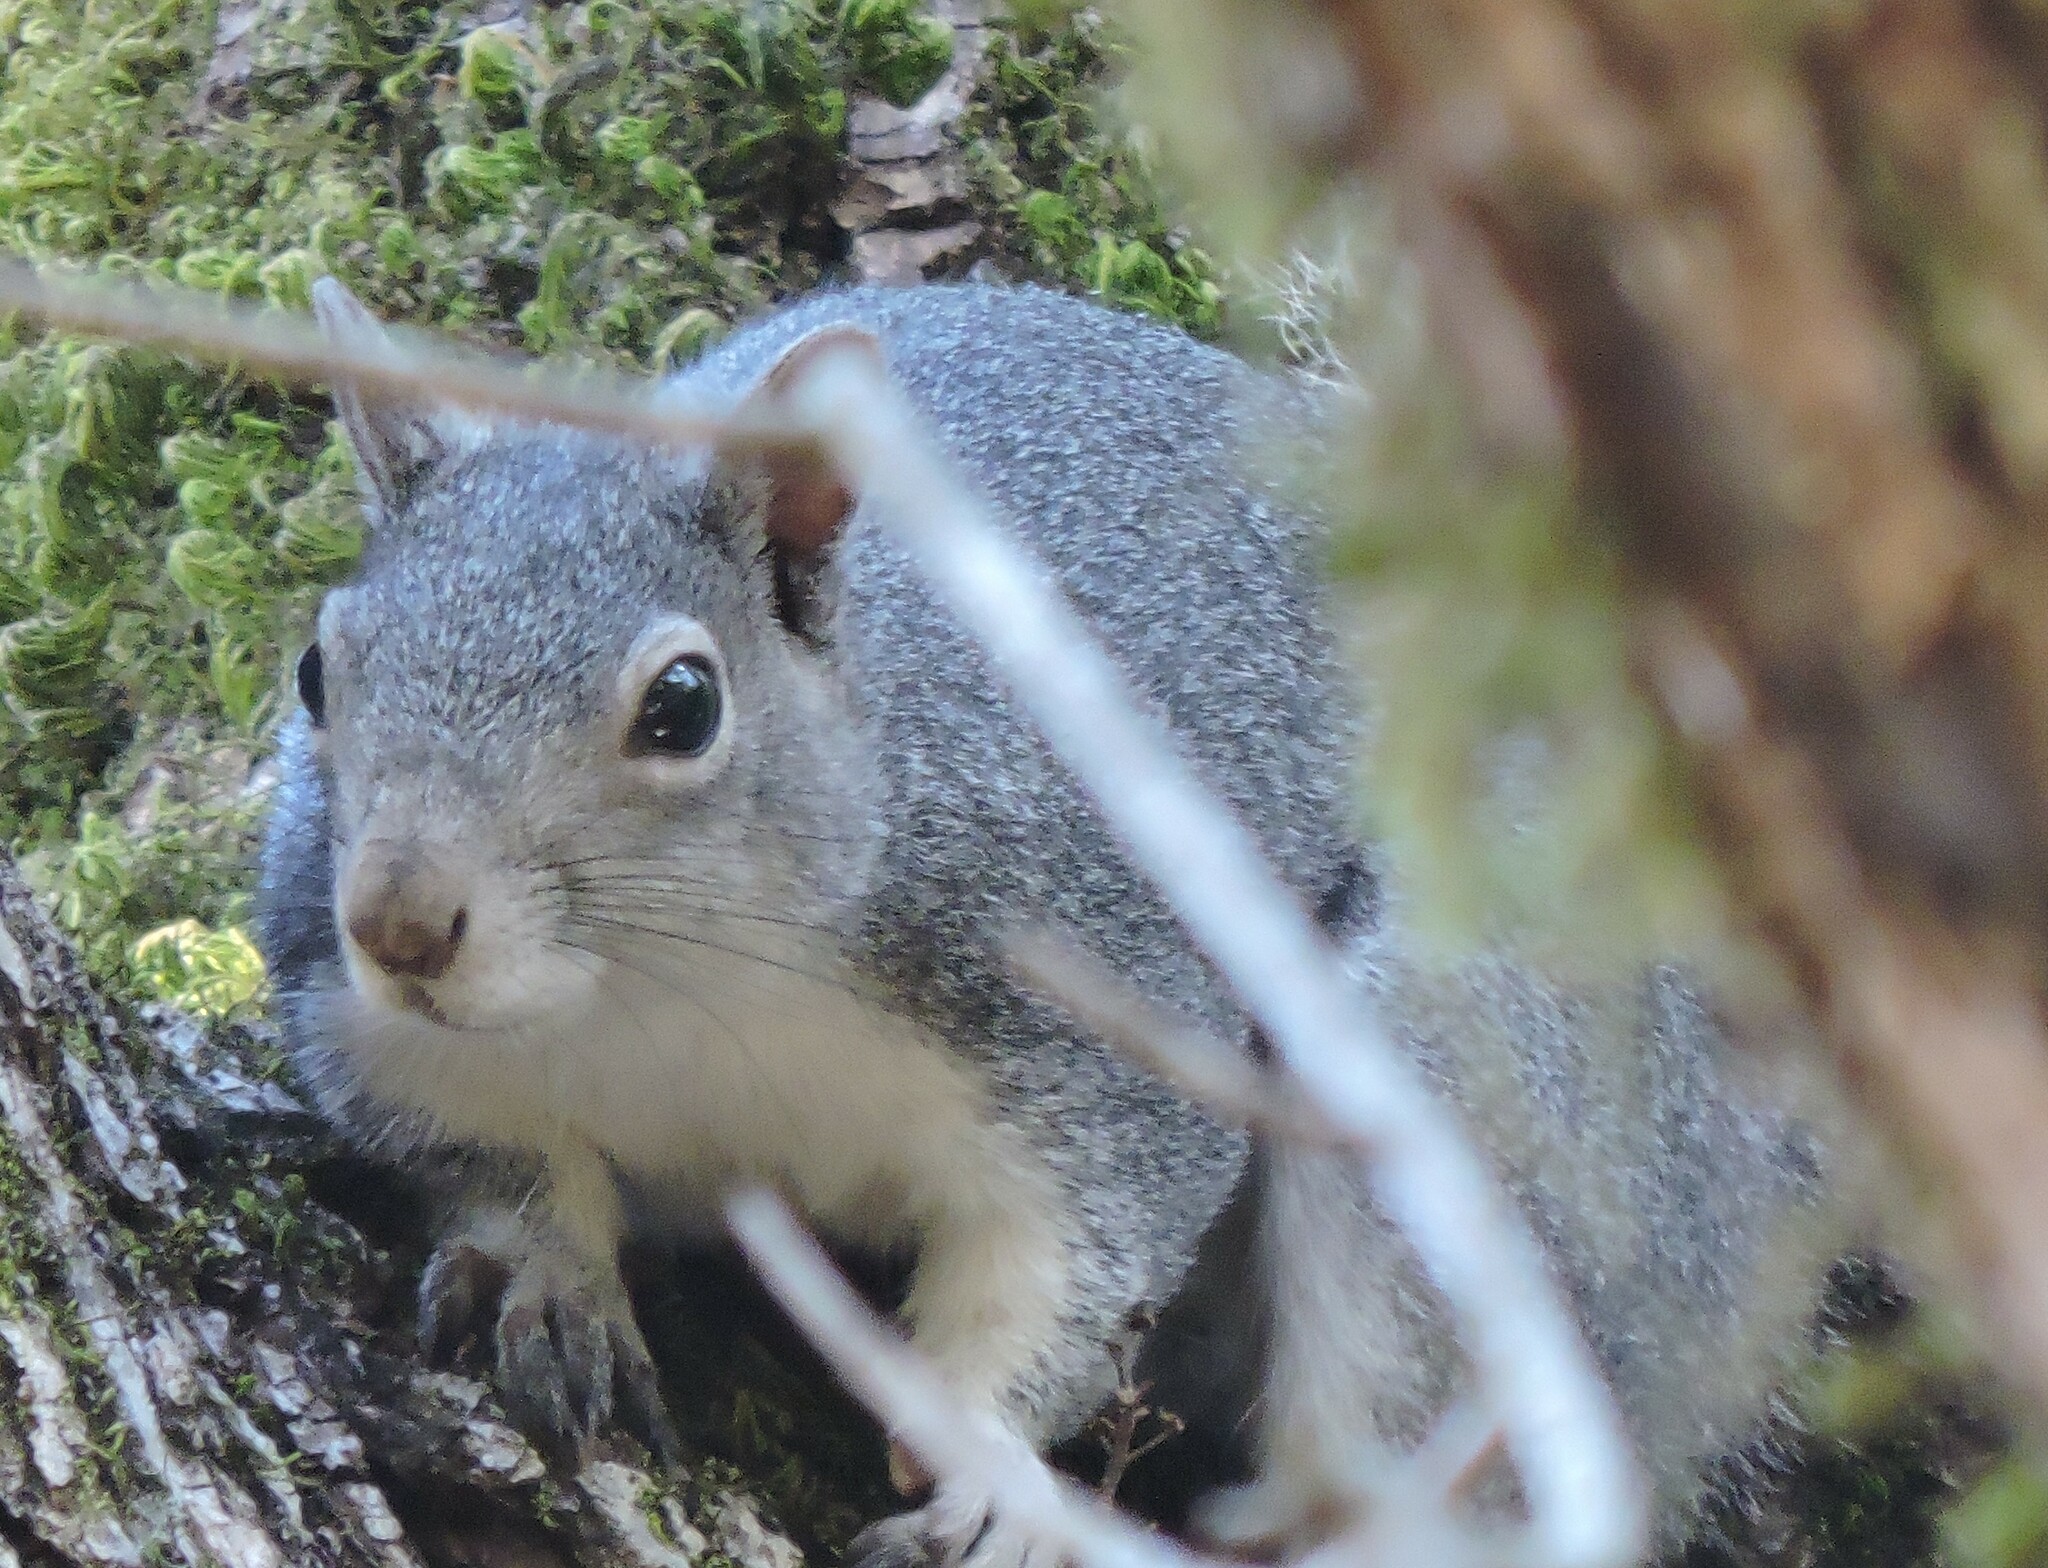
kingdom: Animalia
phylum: Chordata
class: Mammalia
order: Rodentia
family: Sciuridae
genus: Sciurus
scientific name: Sciurus griseus
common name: Western gray squirrel
